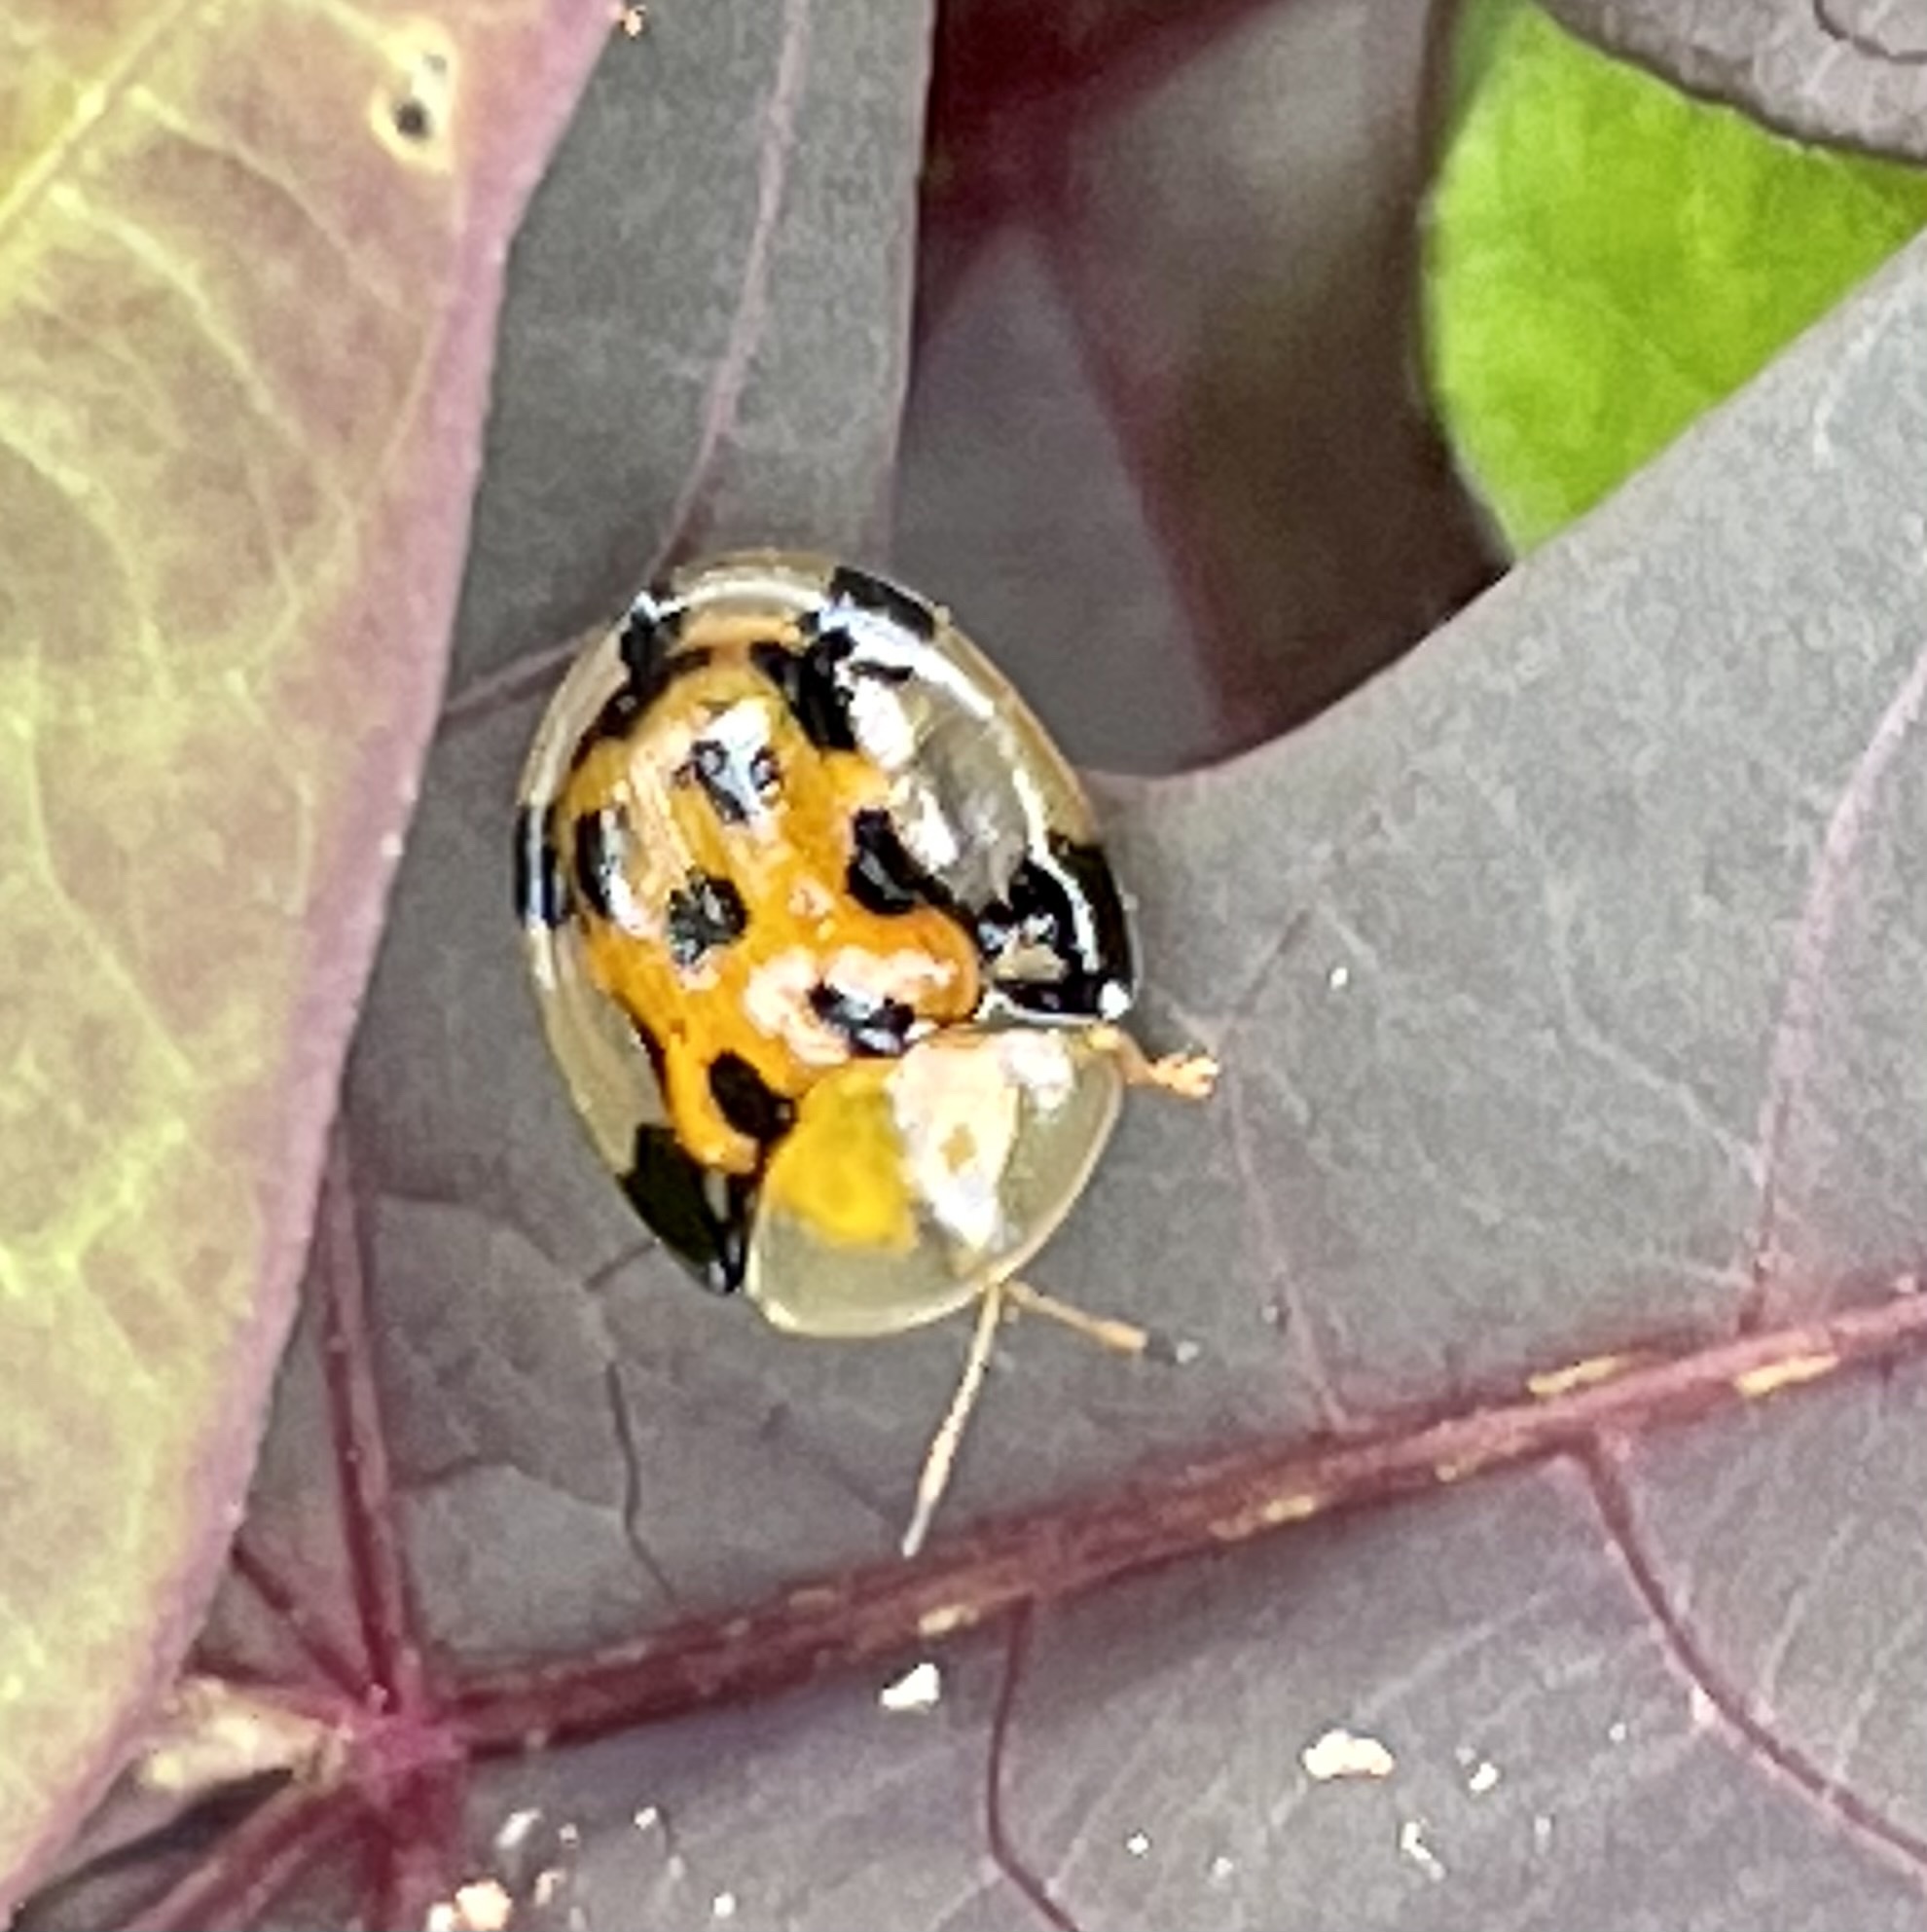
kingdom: Animalia
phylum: Arthropoda
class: Insecta
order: Coleoptera
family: Chrysomelidae
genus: Aspidimorpha
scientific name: Aspidimorpha punctum
